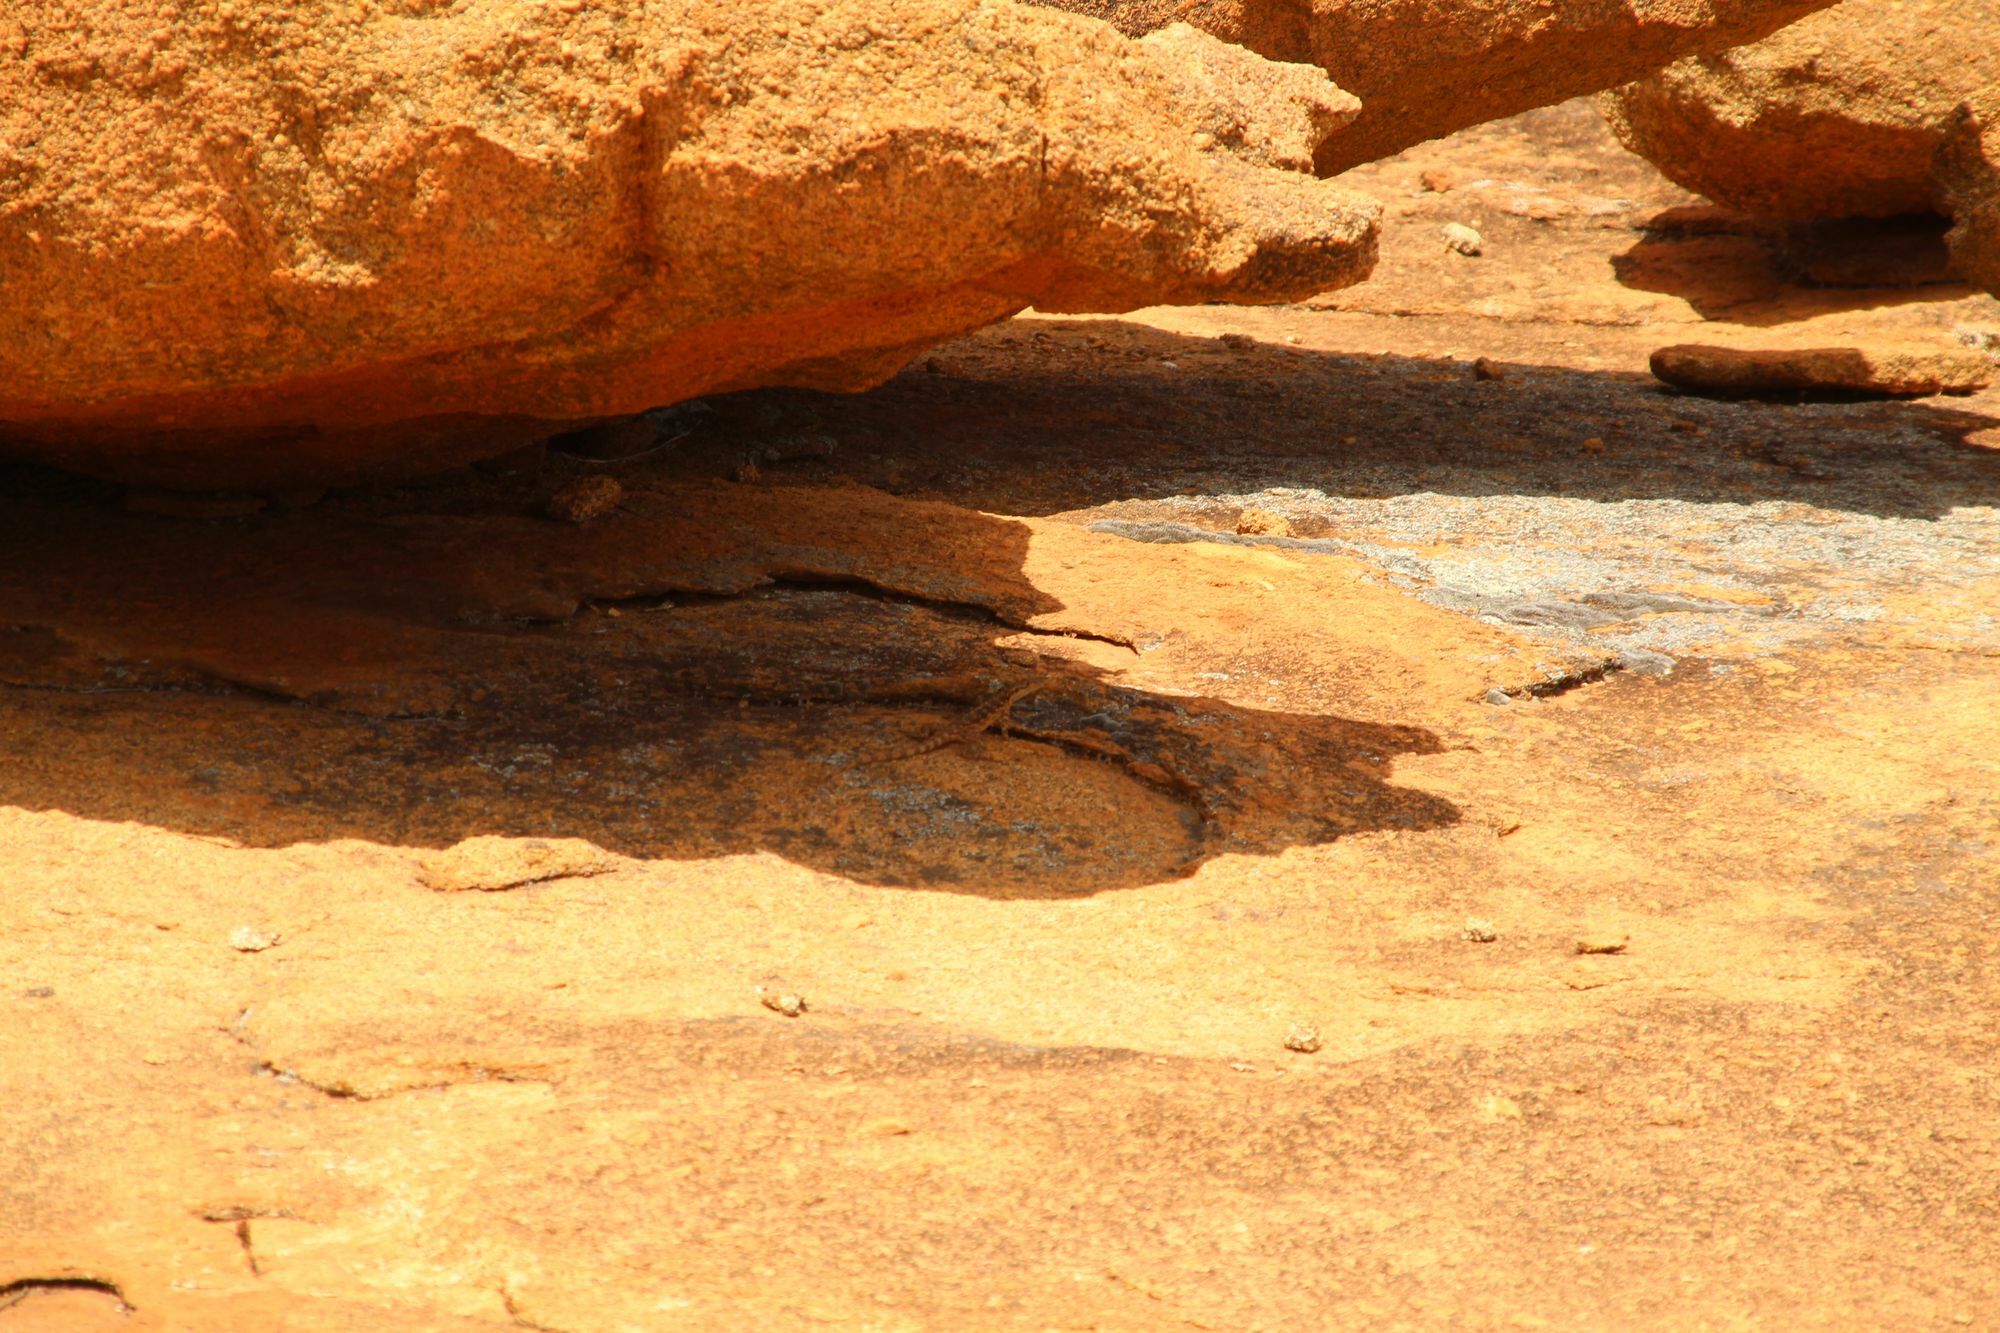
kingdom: Animalia
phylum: Chordata
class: Squamata
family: Agamidae
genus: Ctenophorus
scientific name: Ctenophorus ornatus
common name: Ornate crevice-dragon
